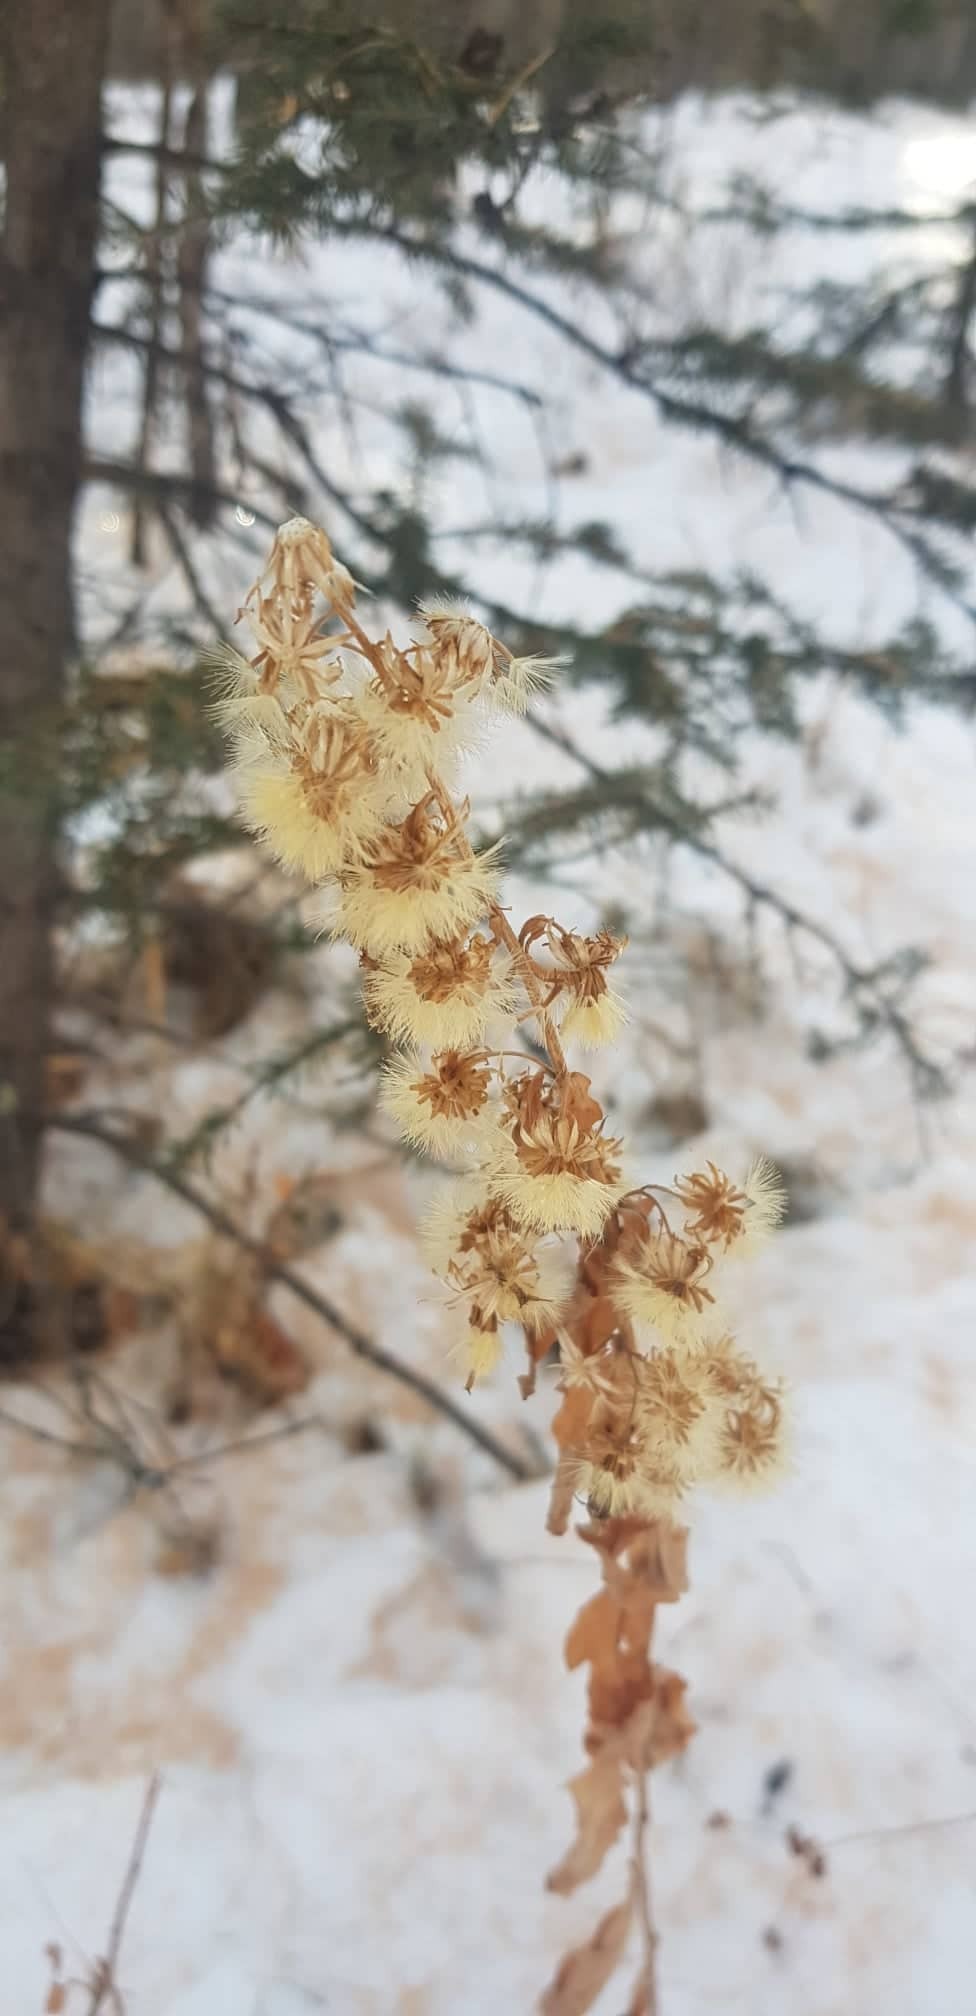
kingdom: Plantae
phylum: Tracheophyta
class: Magnoliopsida
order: Asterales
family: Asteraceae
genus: Solidago
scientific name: Solidago dahurica
